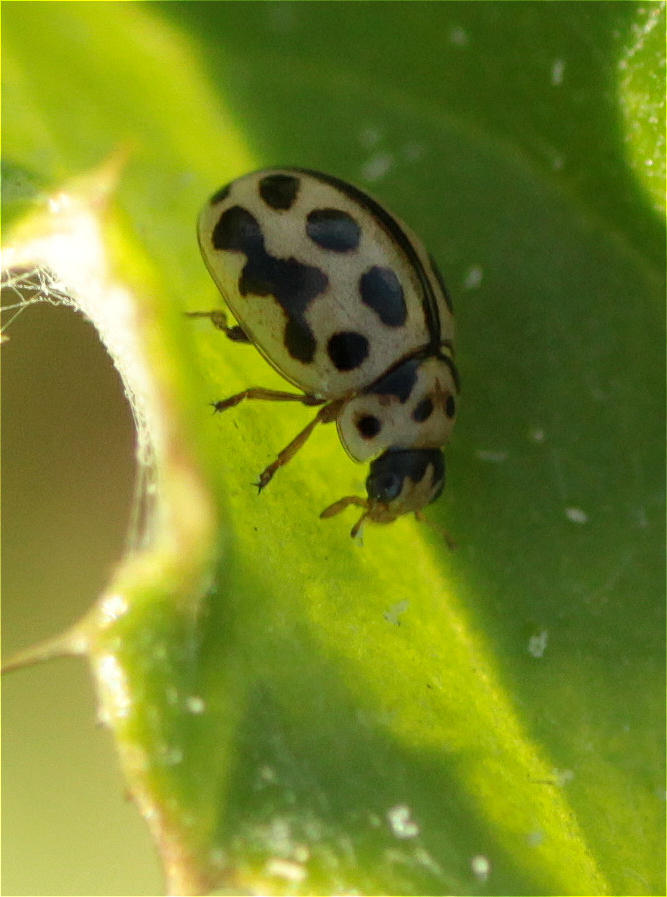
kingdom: Animalia
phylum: Arthropoda
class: Insecta
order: Coleoptera
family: Coccinellidae
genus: Tytthaspis
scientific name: Tytthaspis sedecimpunctata
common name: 16-spot ladybird
